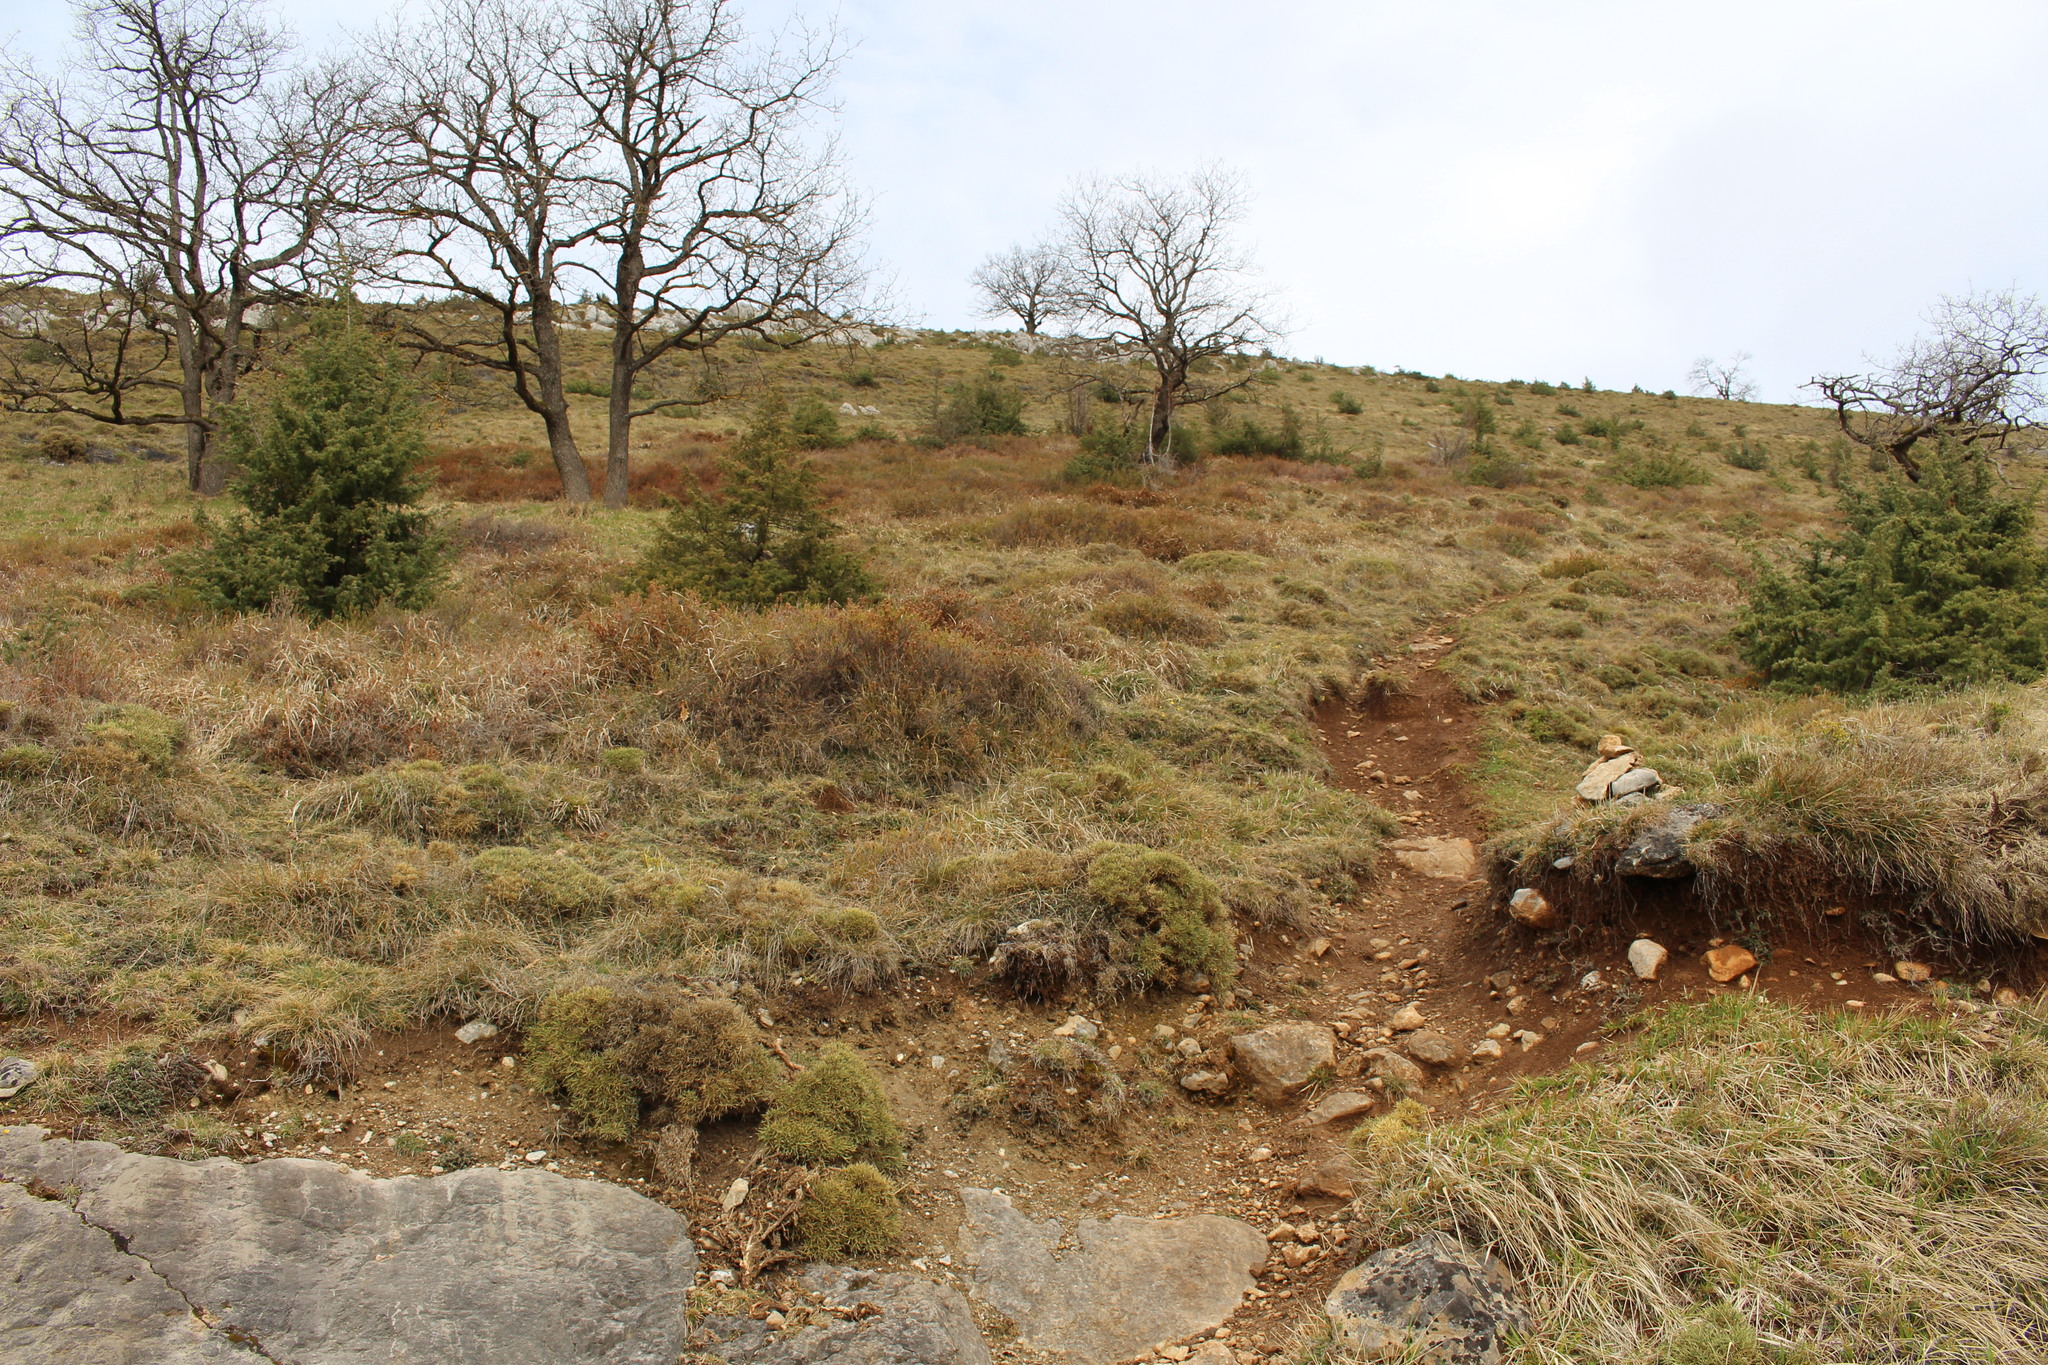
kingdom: Plantae
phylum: Tracheophyta
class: Magnoliopsida
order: Fabales
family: Fabaceae
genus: Echinospartum
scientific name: Echinospartum horridum
